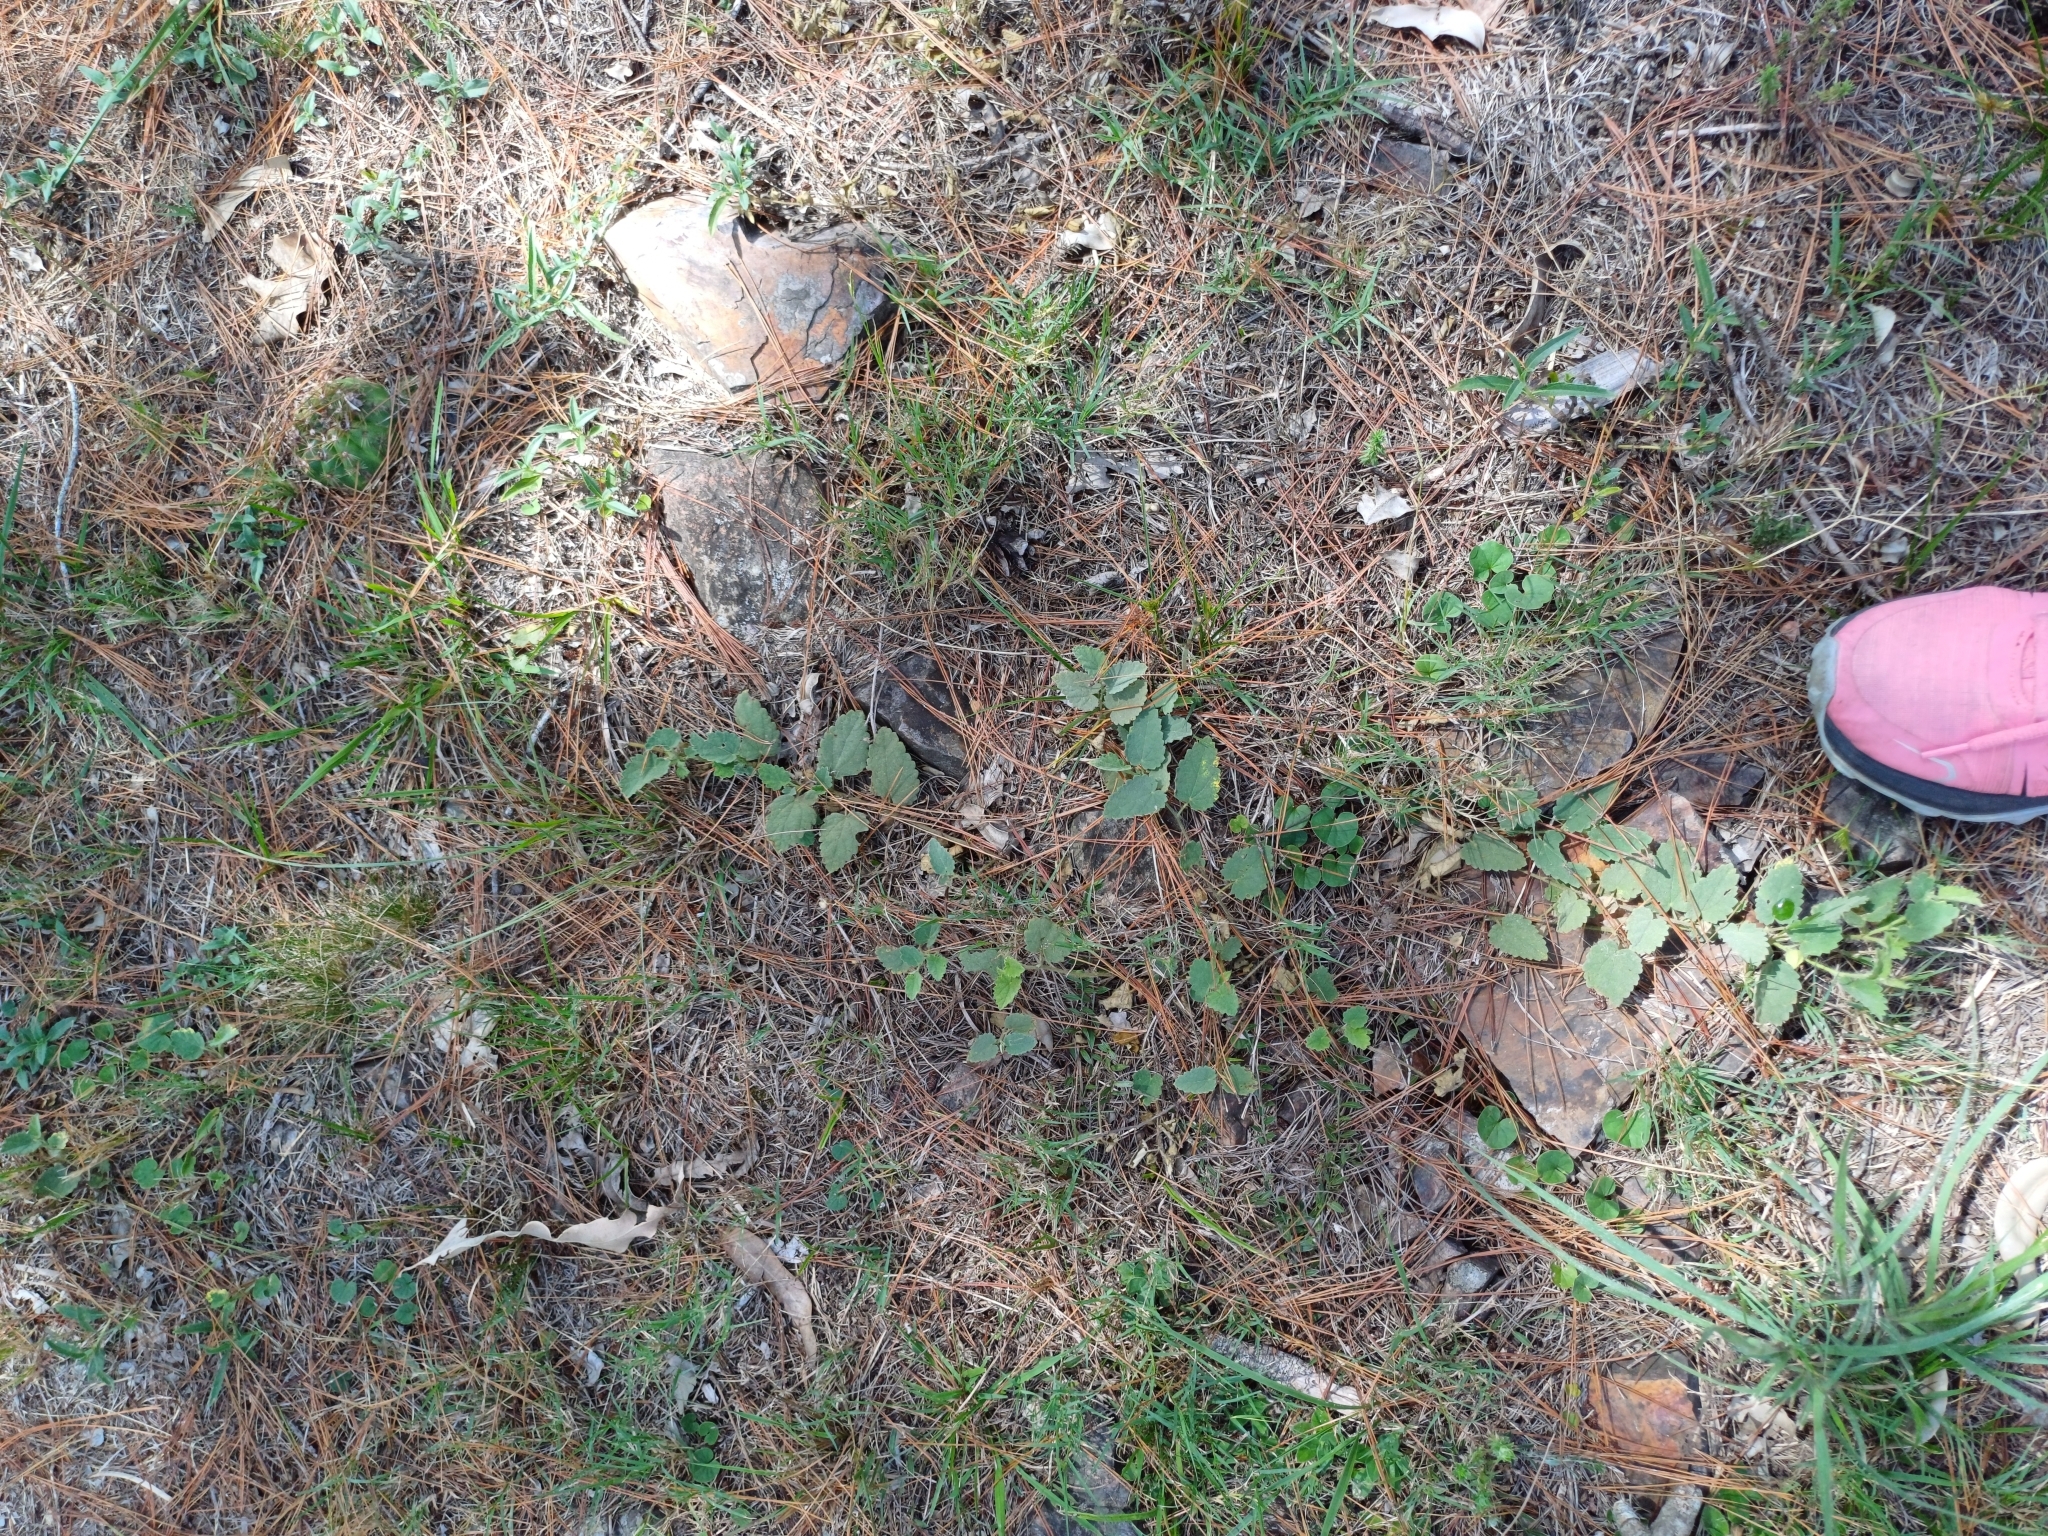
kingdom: Plantae
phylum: Tracheophyta
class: Magnoliopsida
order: Malvales
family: Malvaceae
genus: Krapovickasia
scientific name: Krapovickasia flavescens
